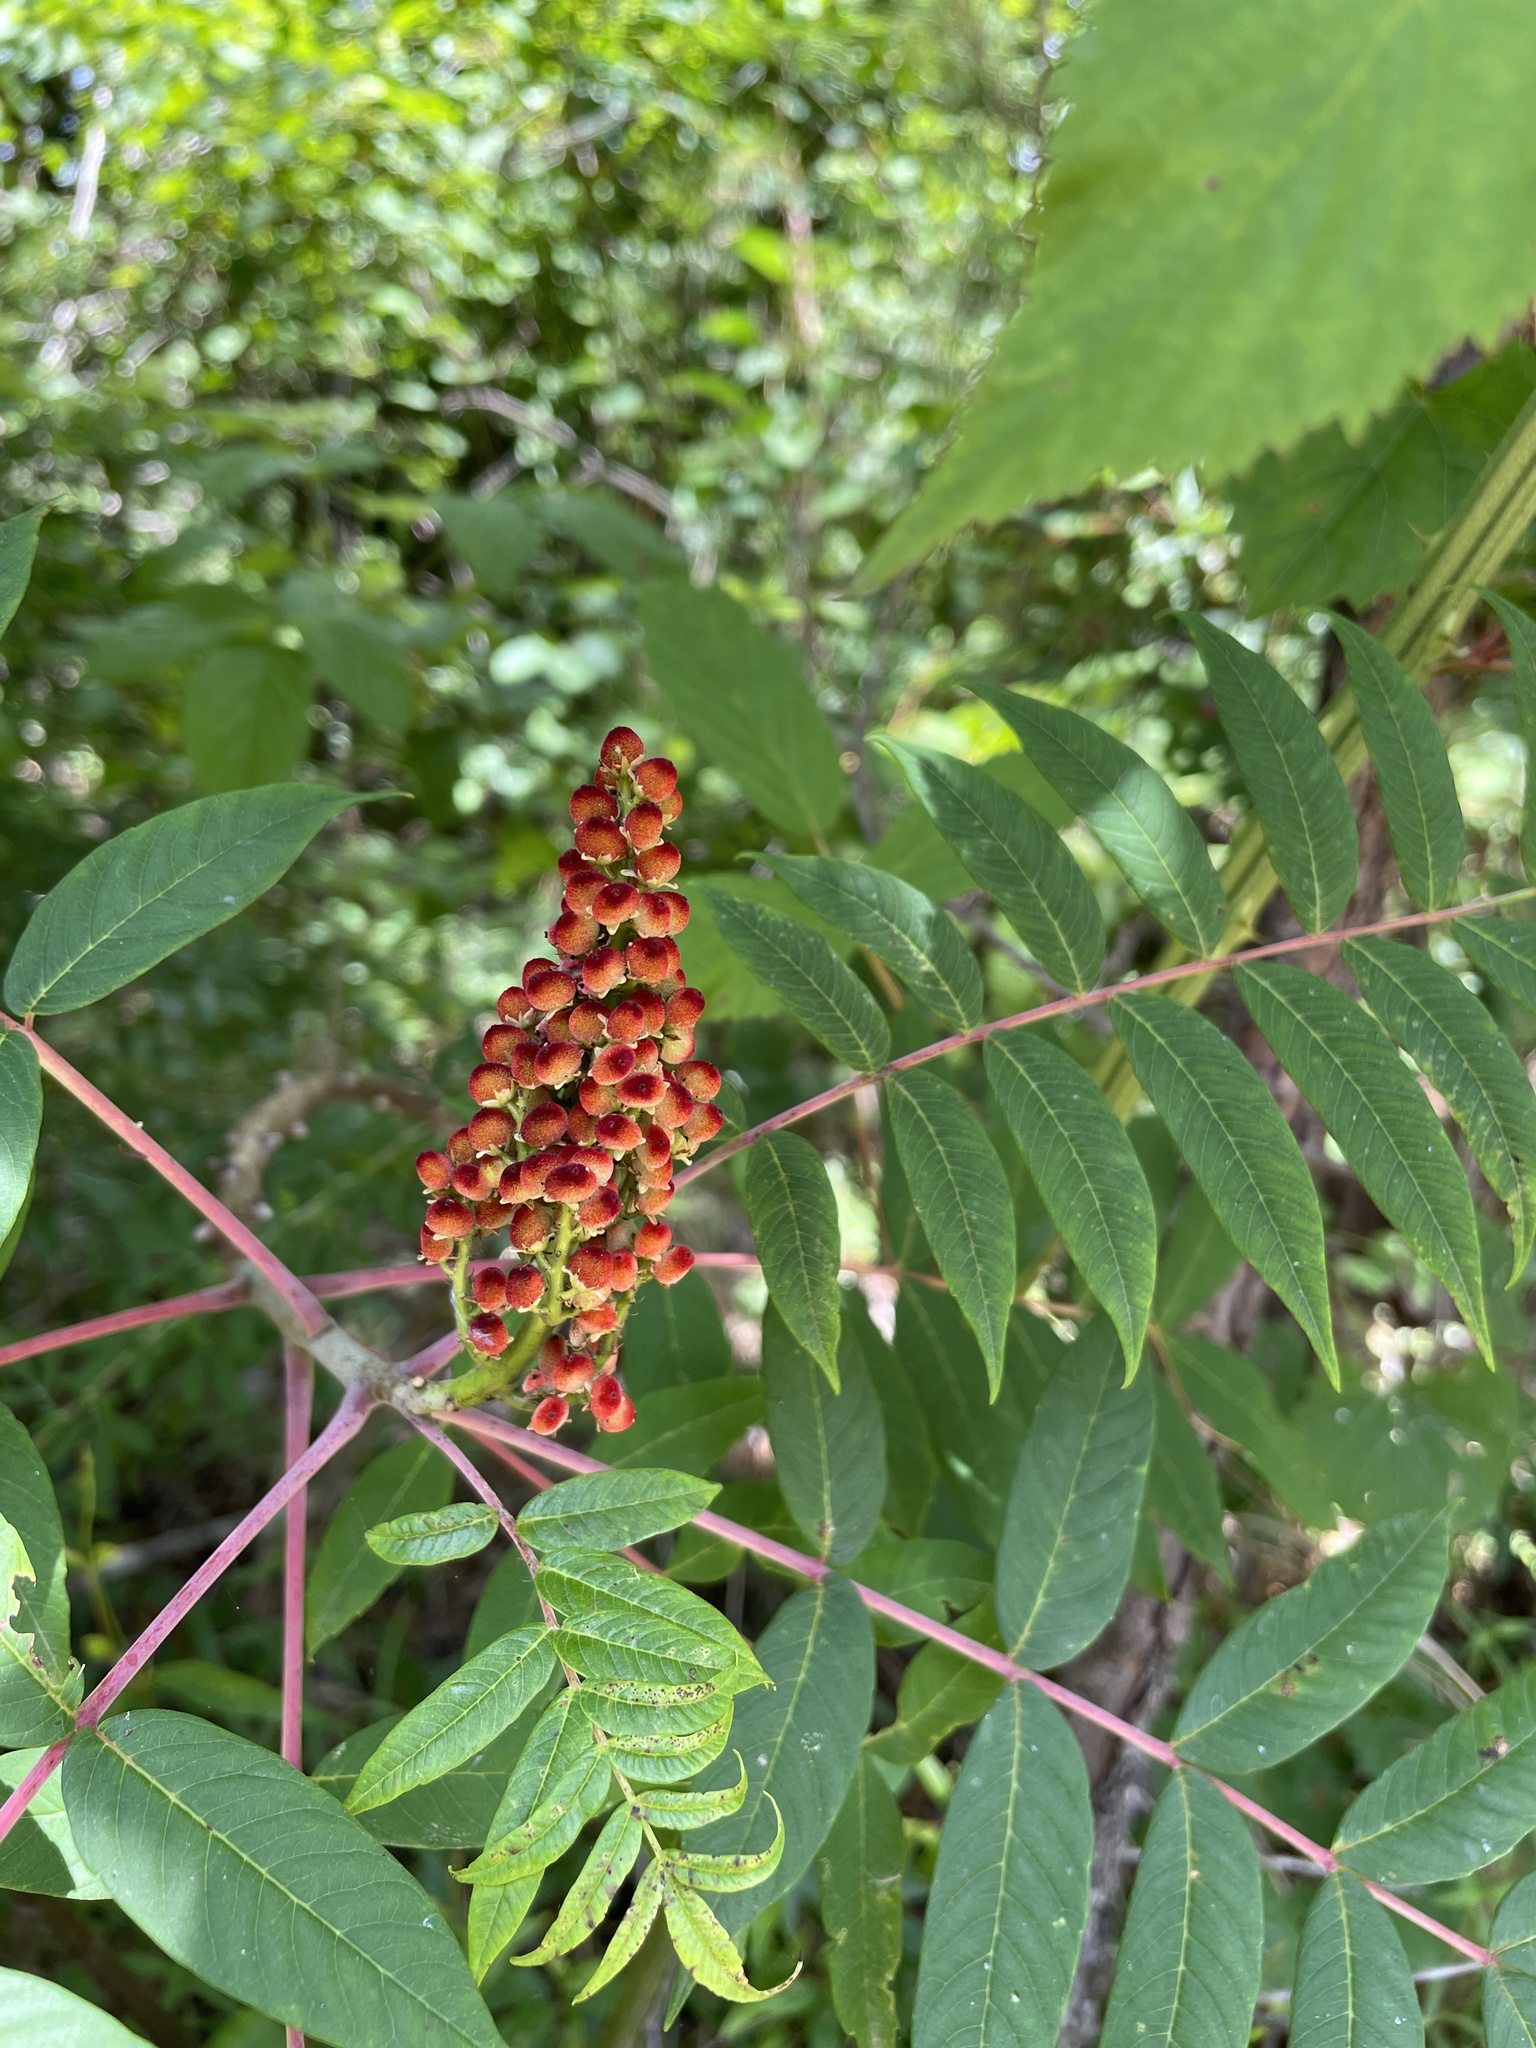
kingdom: Plantae
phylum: Tracheophyta
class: Magnoliopsida
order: Sapindales
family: Anacardiaceae
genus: Rhus
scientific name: Rhus glabra
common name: Scarlet sumac
